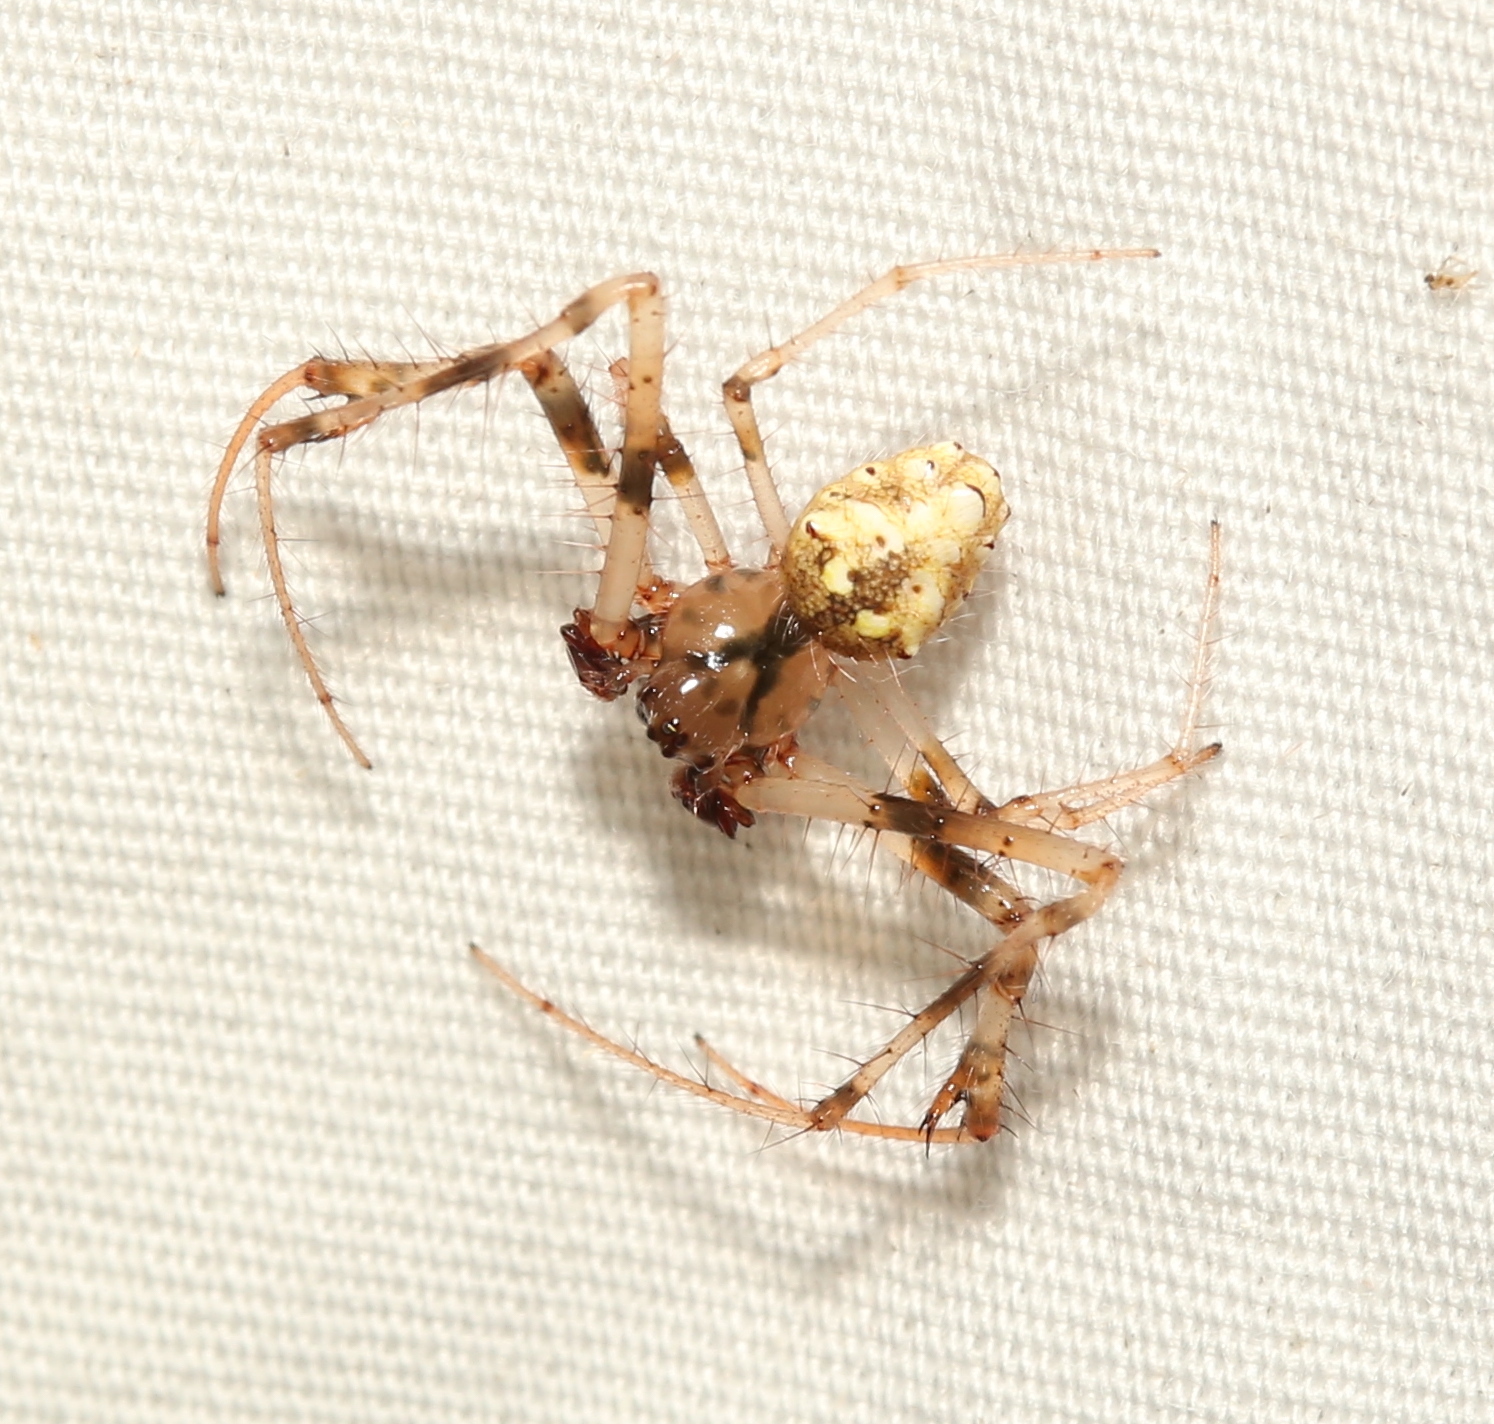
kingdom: Animalia
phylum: Arthropoda
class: Arachnida
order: Araneae
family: Araneidae
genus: Verrucosa
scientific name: Verrucosa arenata
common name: Orb weavers
